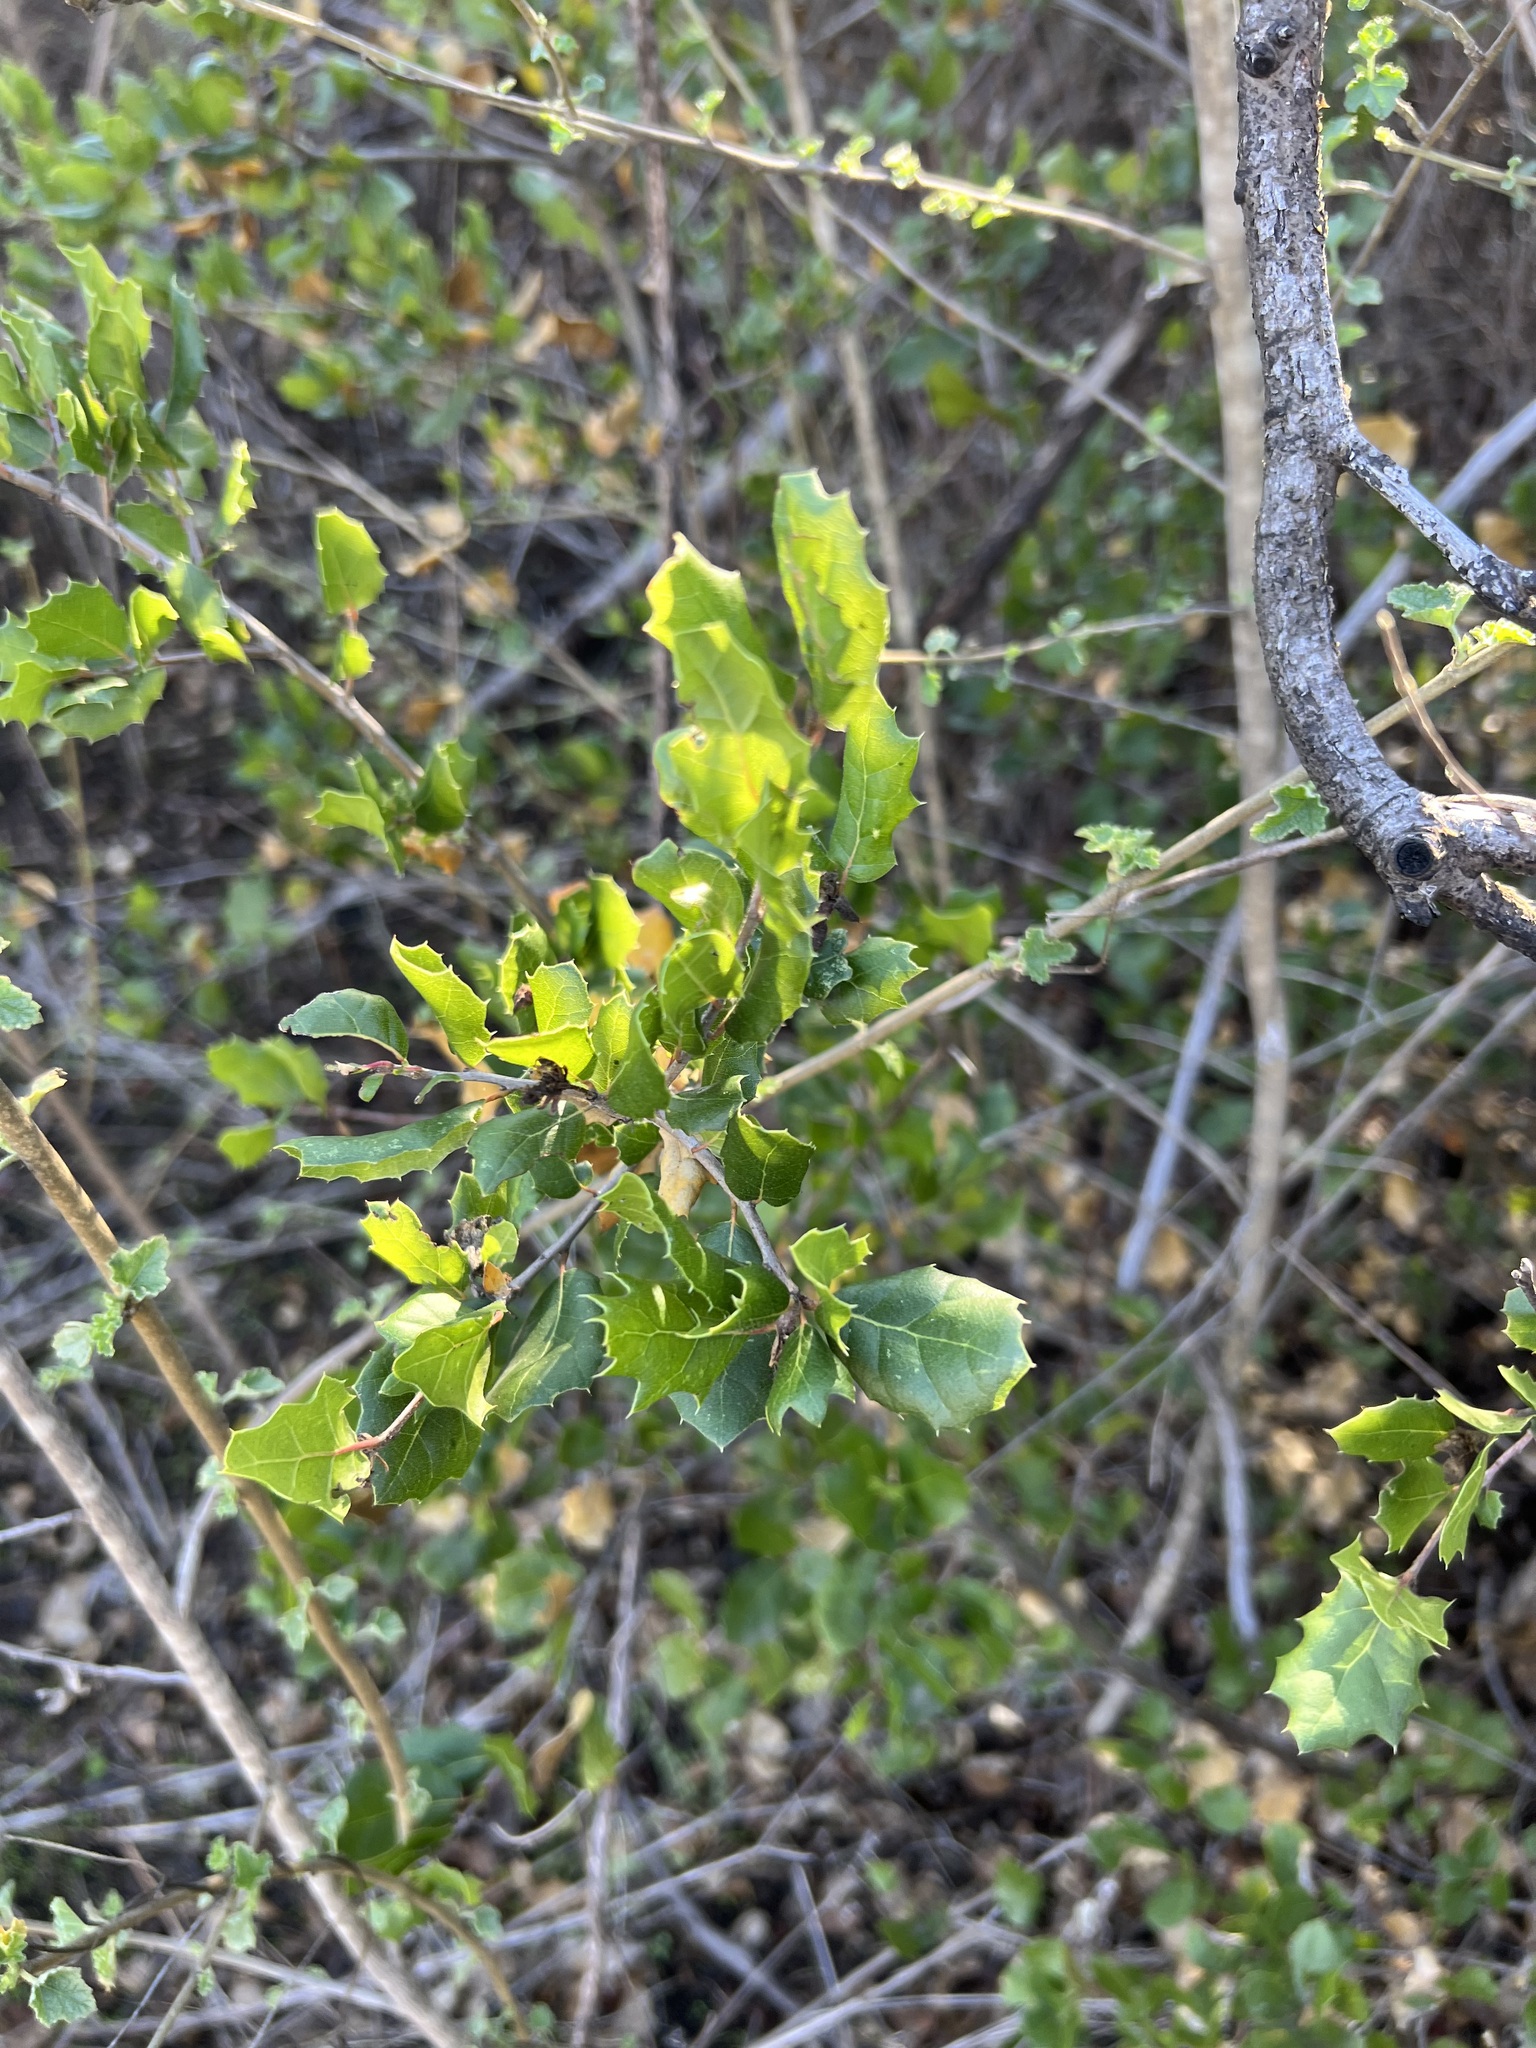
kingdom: Plantae
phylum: Tracheophyta
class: Magnoliopsida
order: Fagales
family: Fagaceae
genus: Quercus
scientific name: Quercus agrifolia
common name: California live oak
